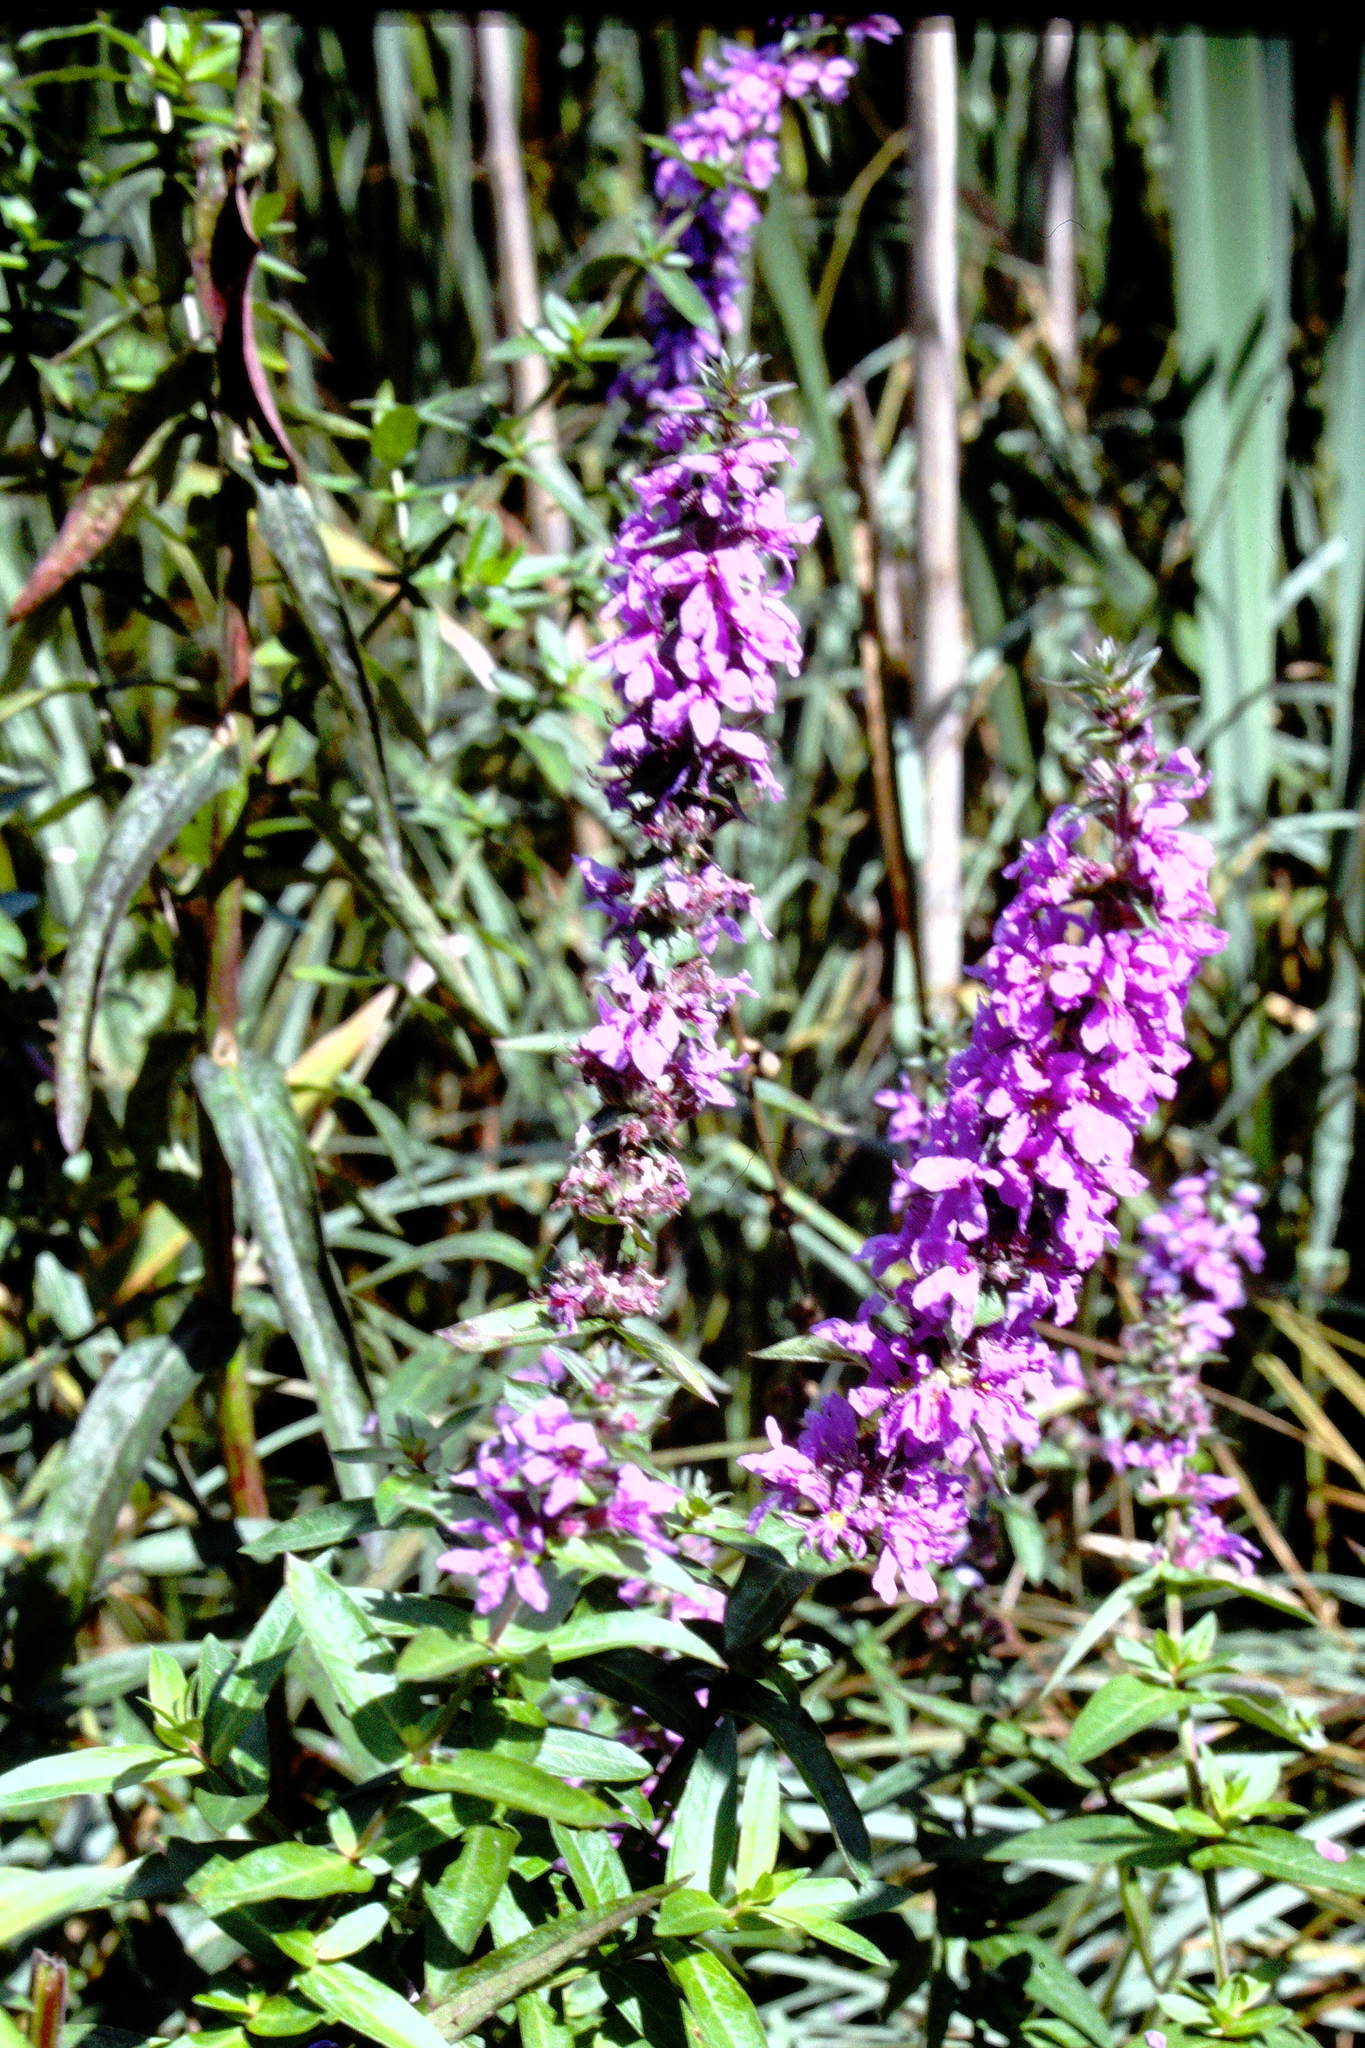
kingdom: Plantae
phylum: Tracheophyta
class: Magnoliopsida
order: Myrtales
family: Lythraceae
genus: Lythrum
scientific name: Lythrum salicaria
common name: Purple loosestrife
